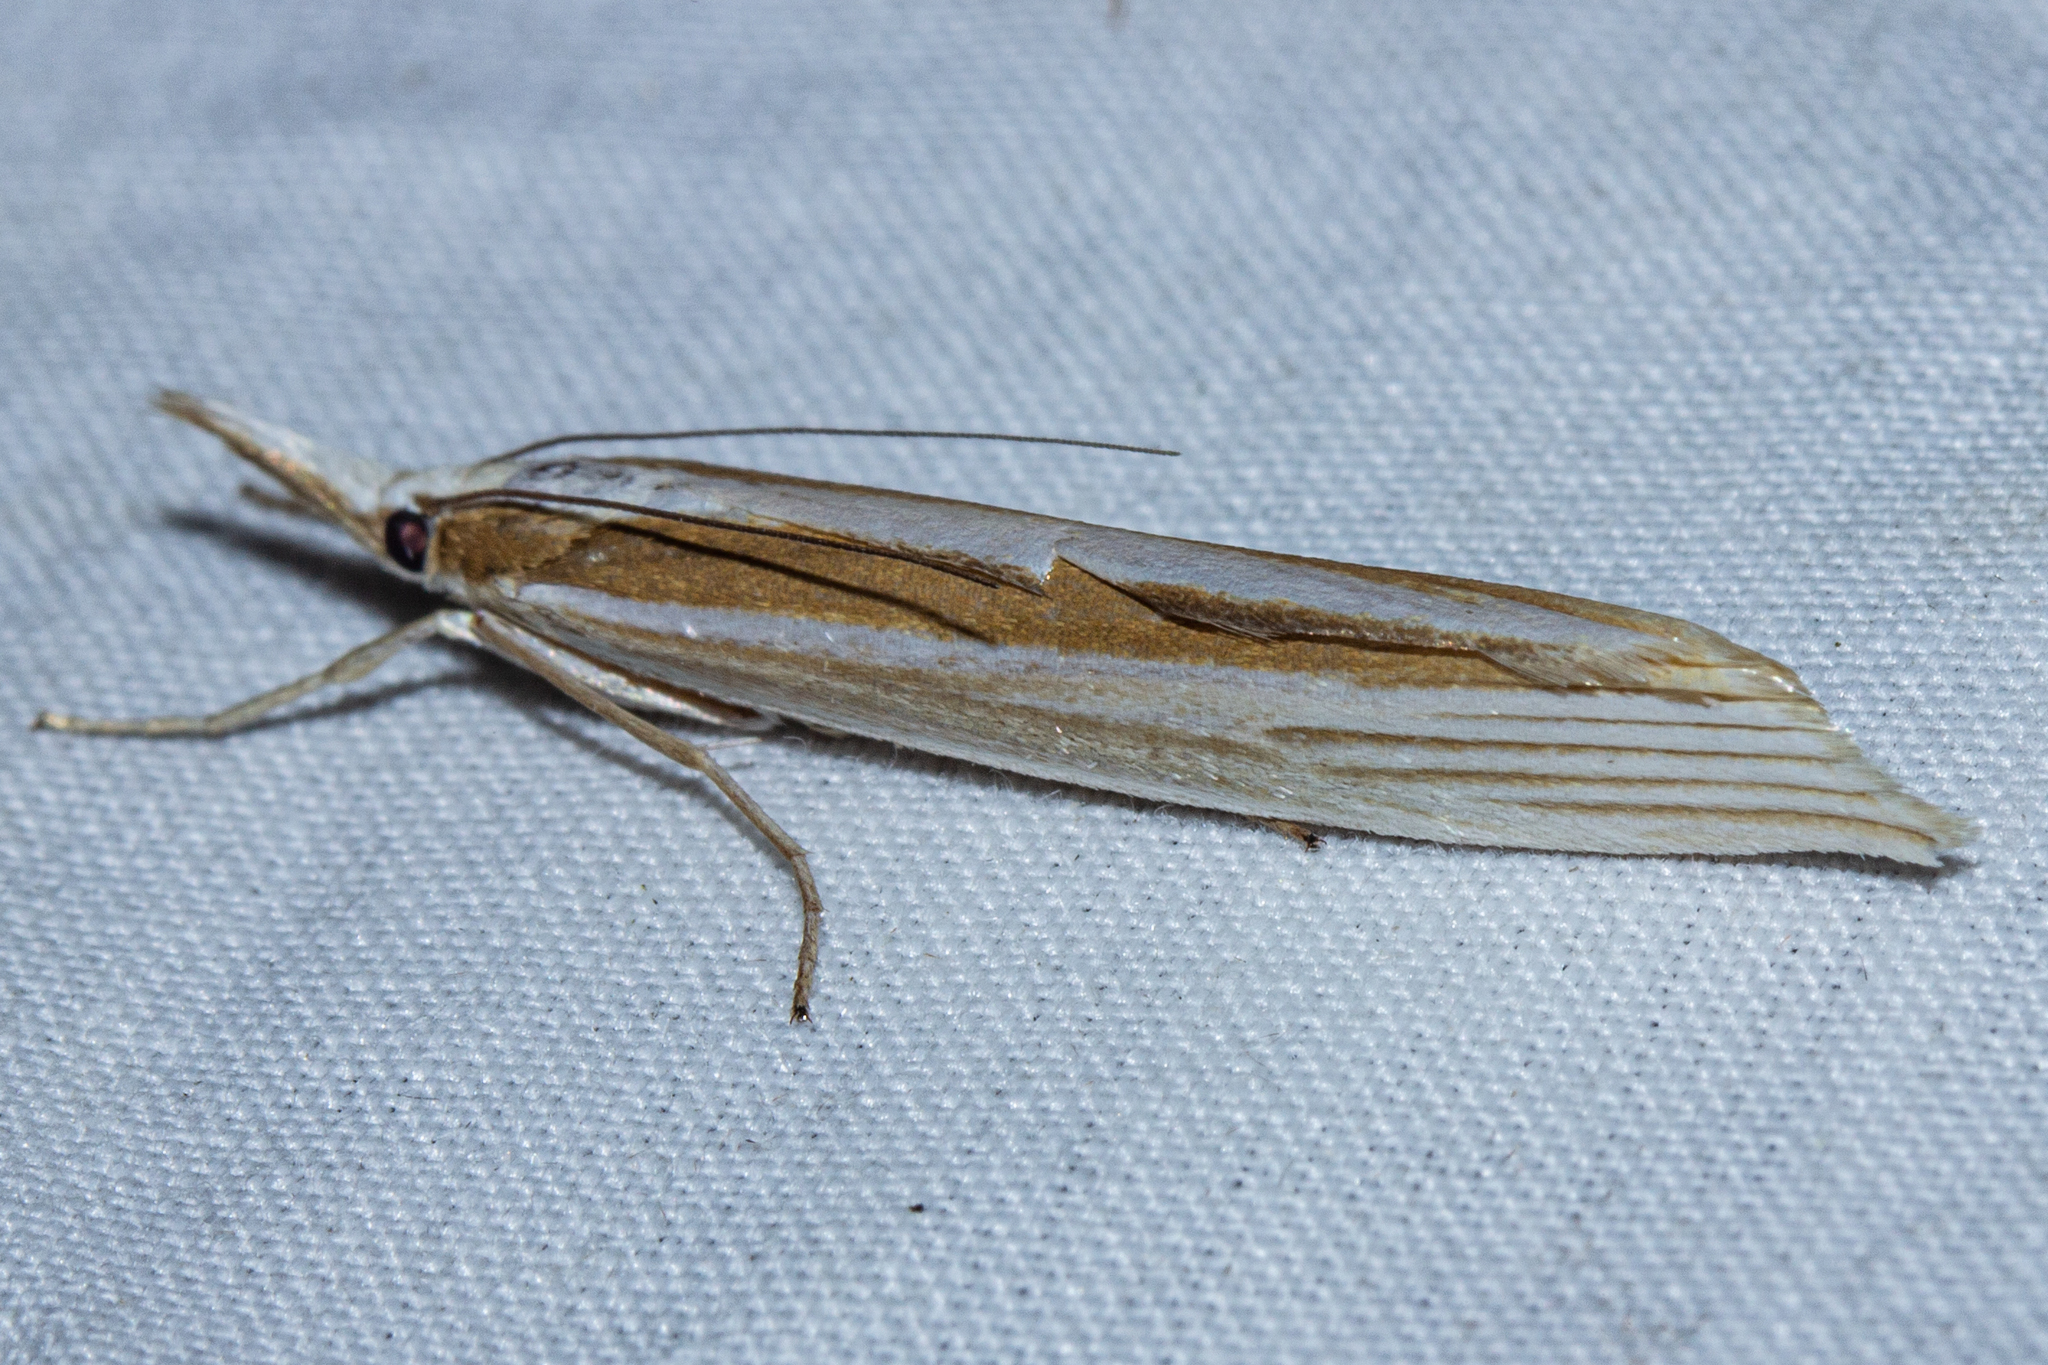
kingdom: Animalia
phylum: Arthropoda
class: Insecta
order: Lepidoptera
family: Crambidae
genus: Orocrambus
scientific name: Orocrambus angustipennis
